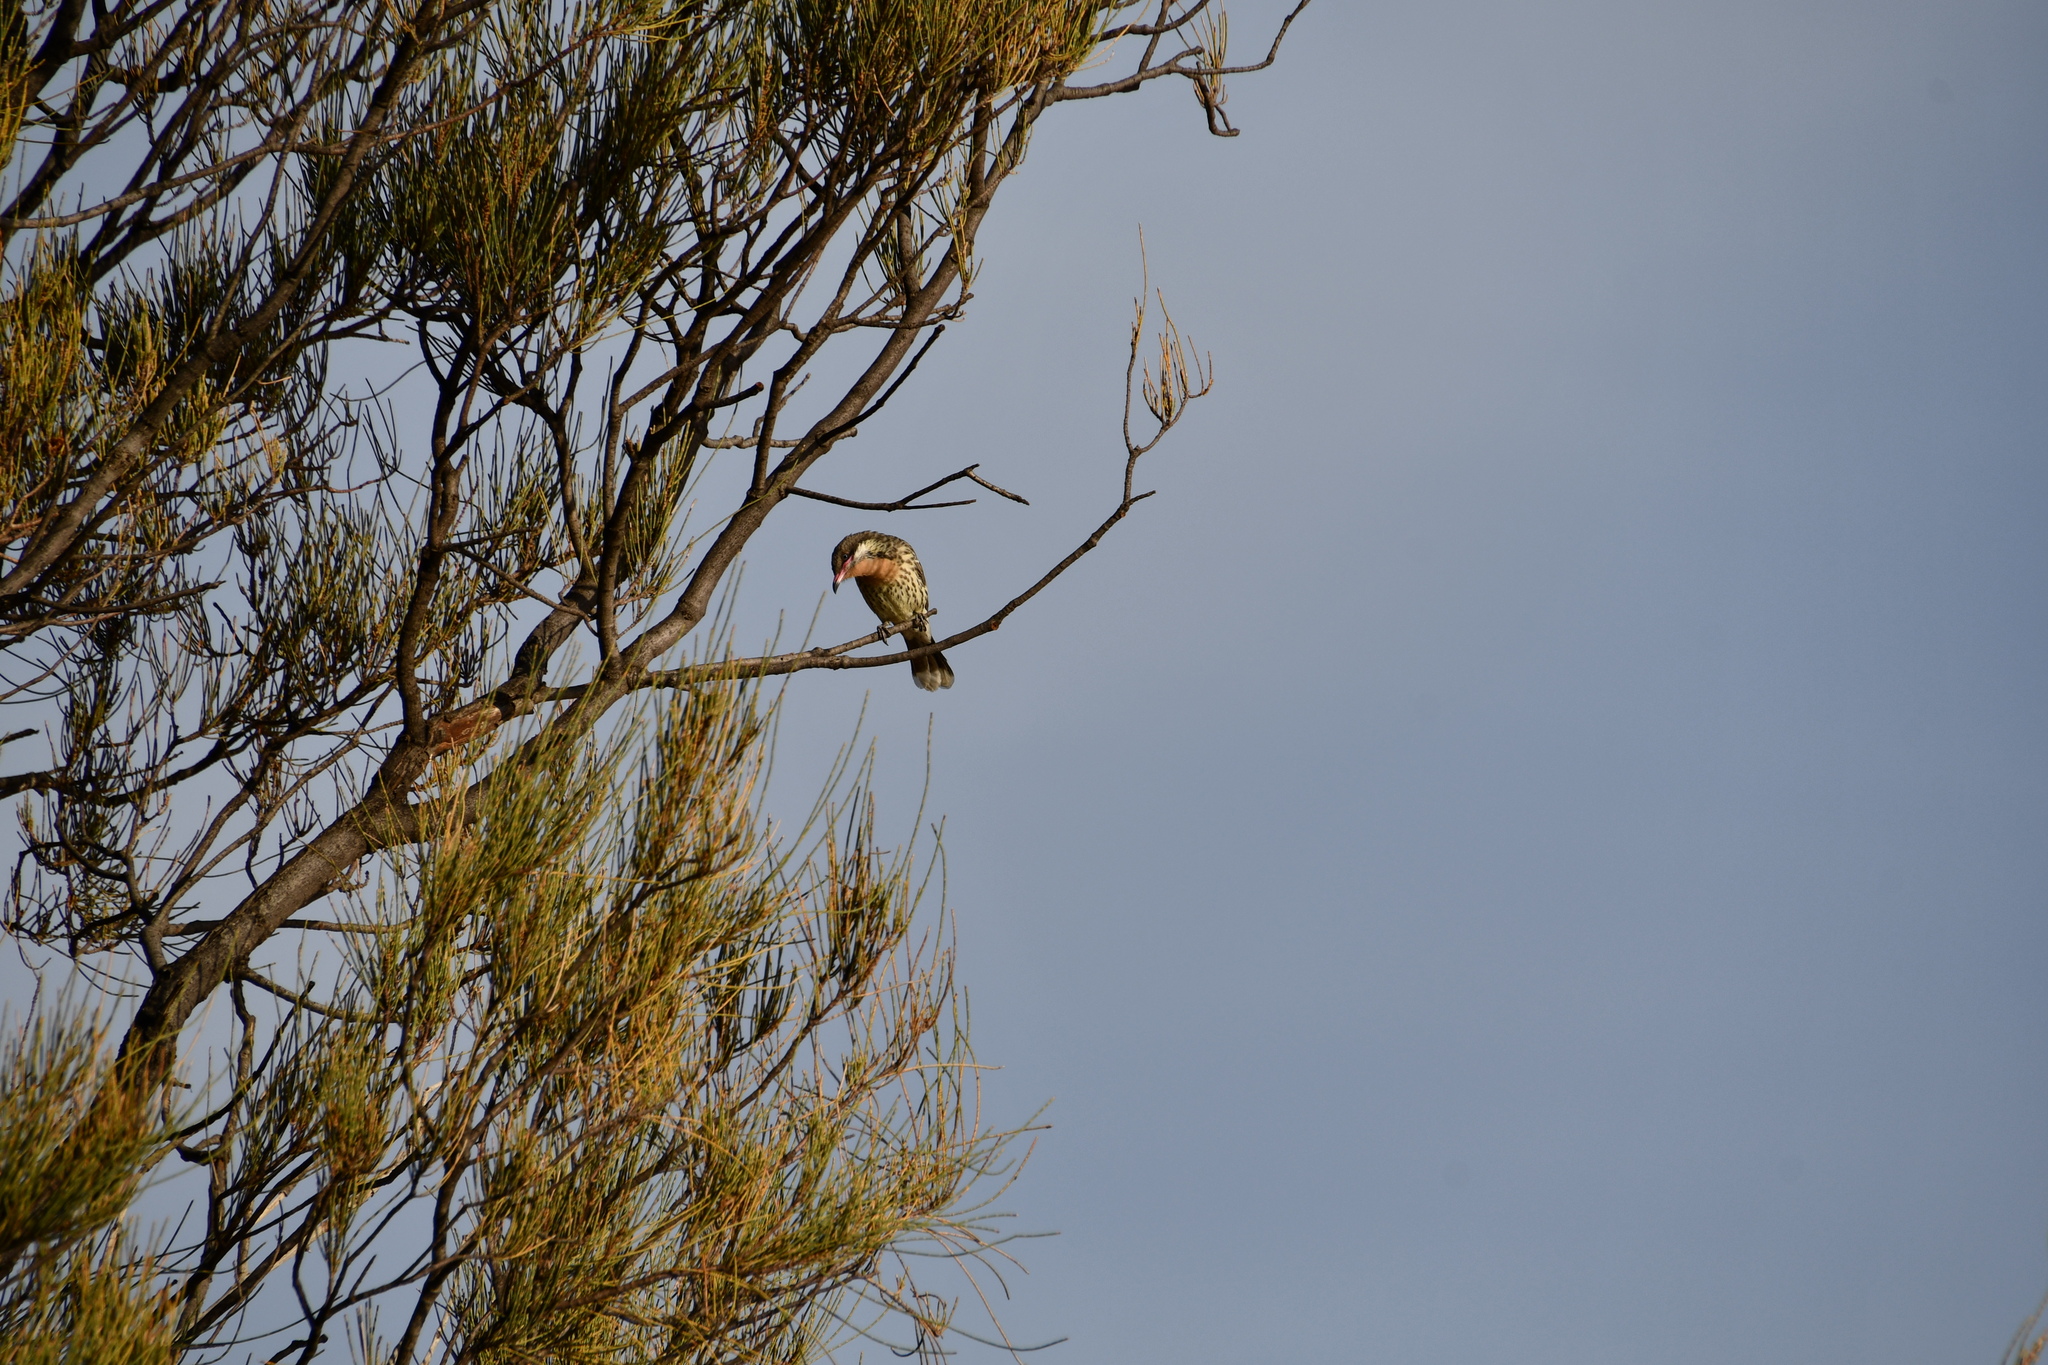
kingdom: Animalia
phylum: Chordata
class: Aves
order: Passeriformes
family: Meliphagidae
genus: Acanthagenys
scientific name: Acanthagenys rufogularis
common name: Spiny-cheeked honeyeater
